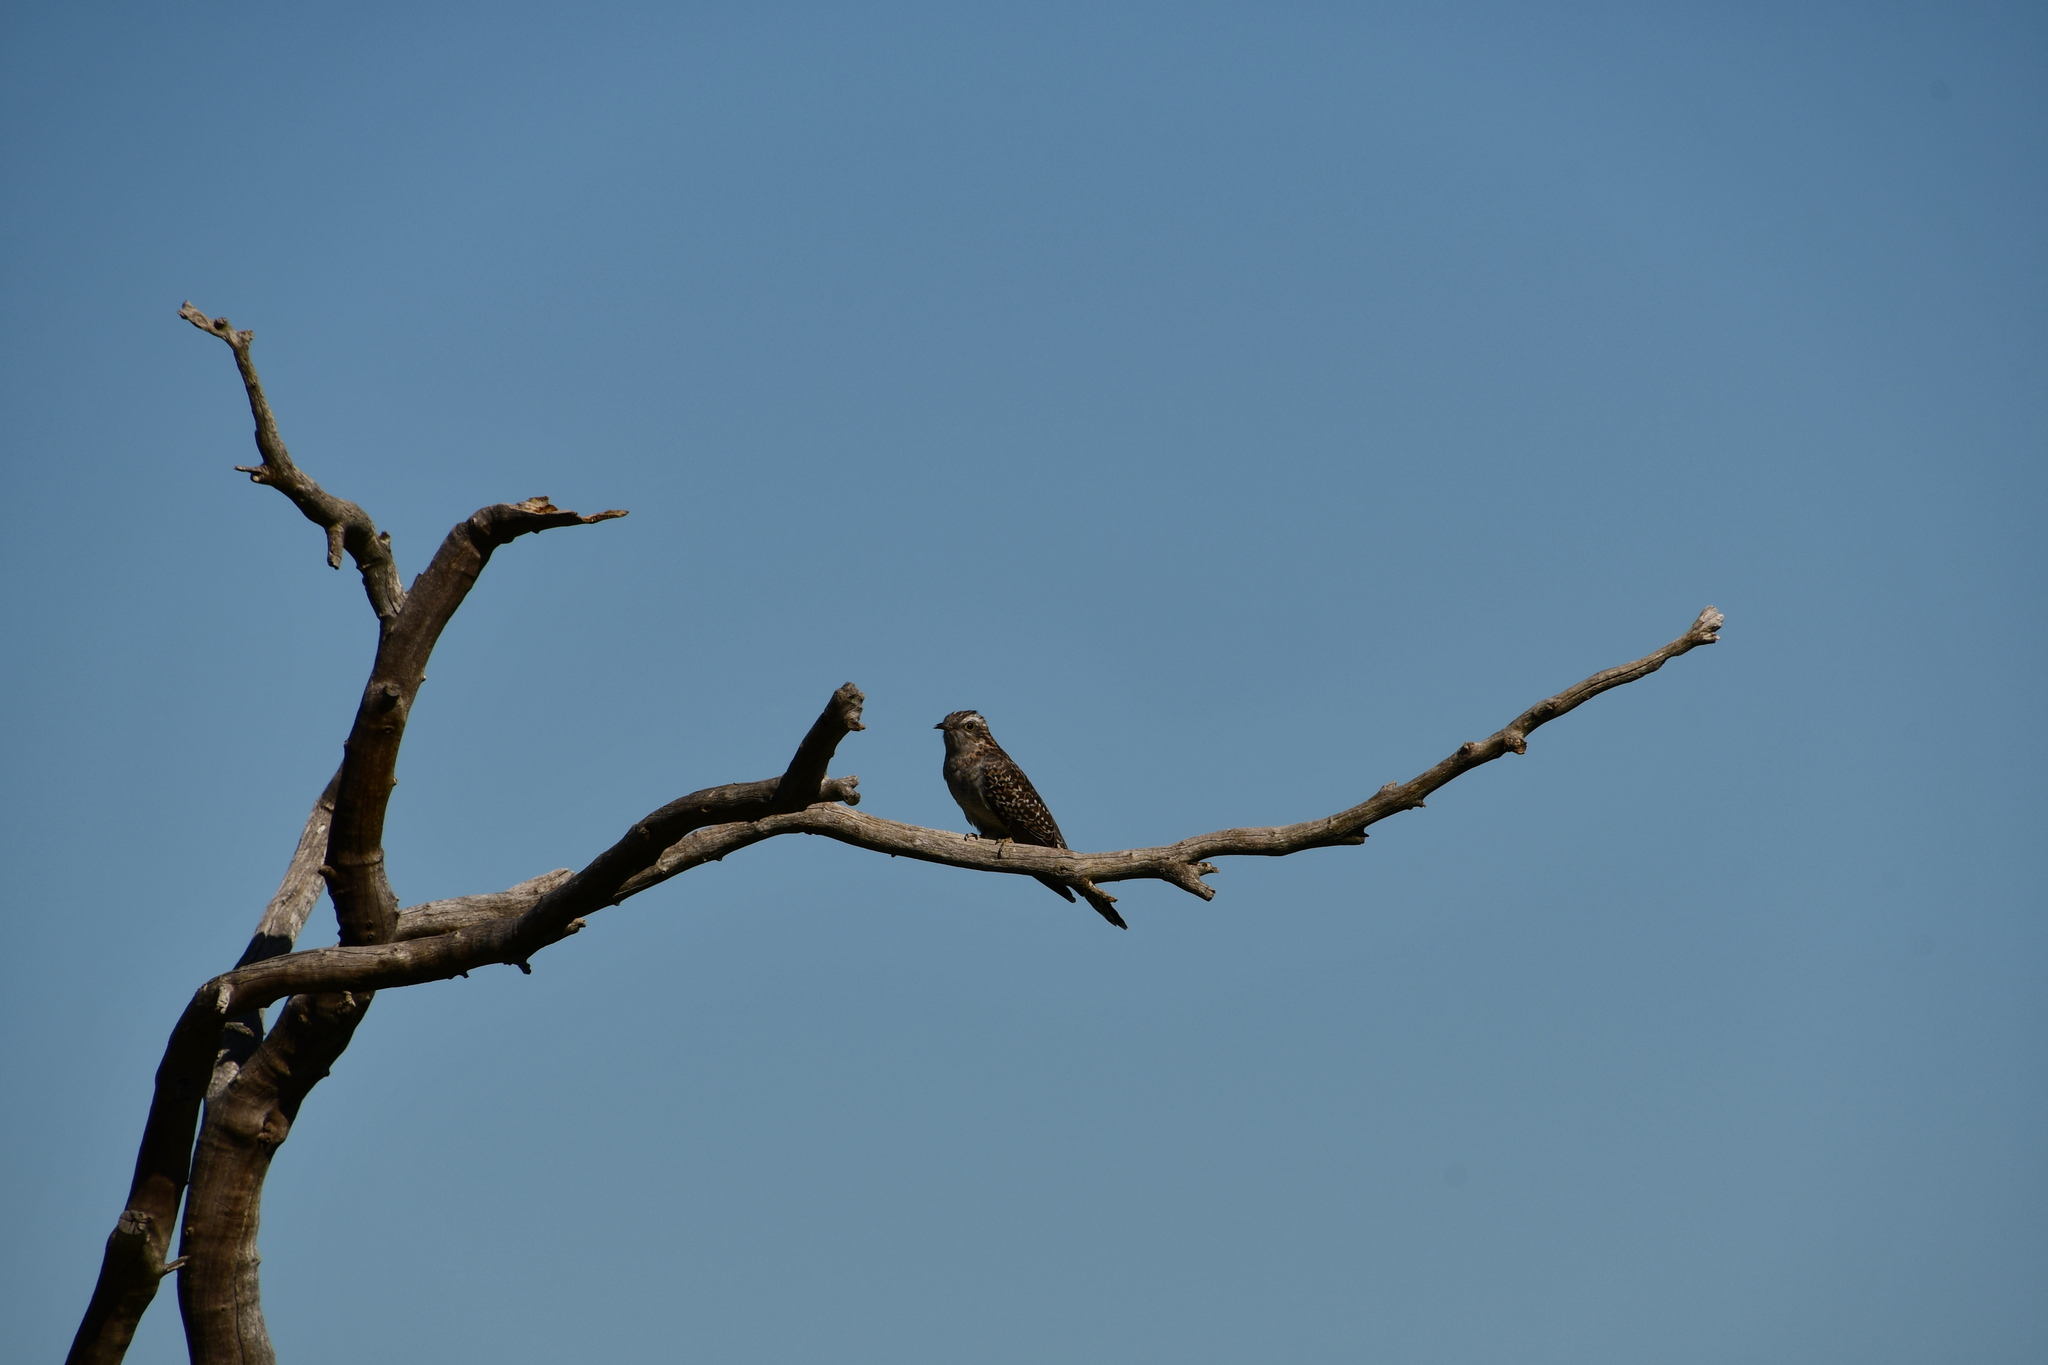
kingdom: Animalia
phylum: Chordata
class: Aves
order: Cuculiformes
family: Cuculidae
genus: Cuculus
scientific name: Cuculus pallidus
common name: Pallid cuckoo
